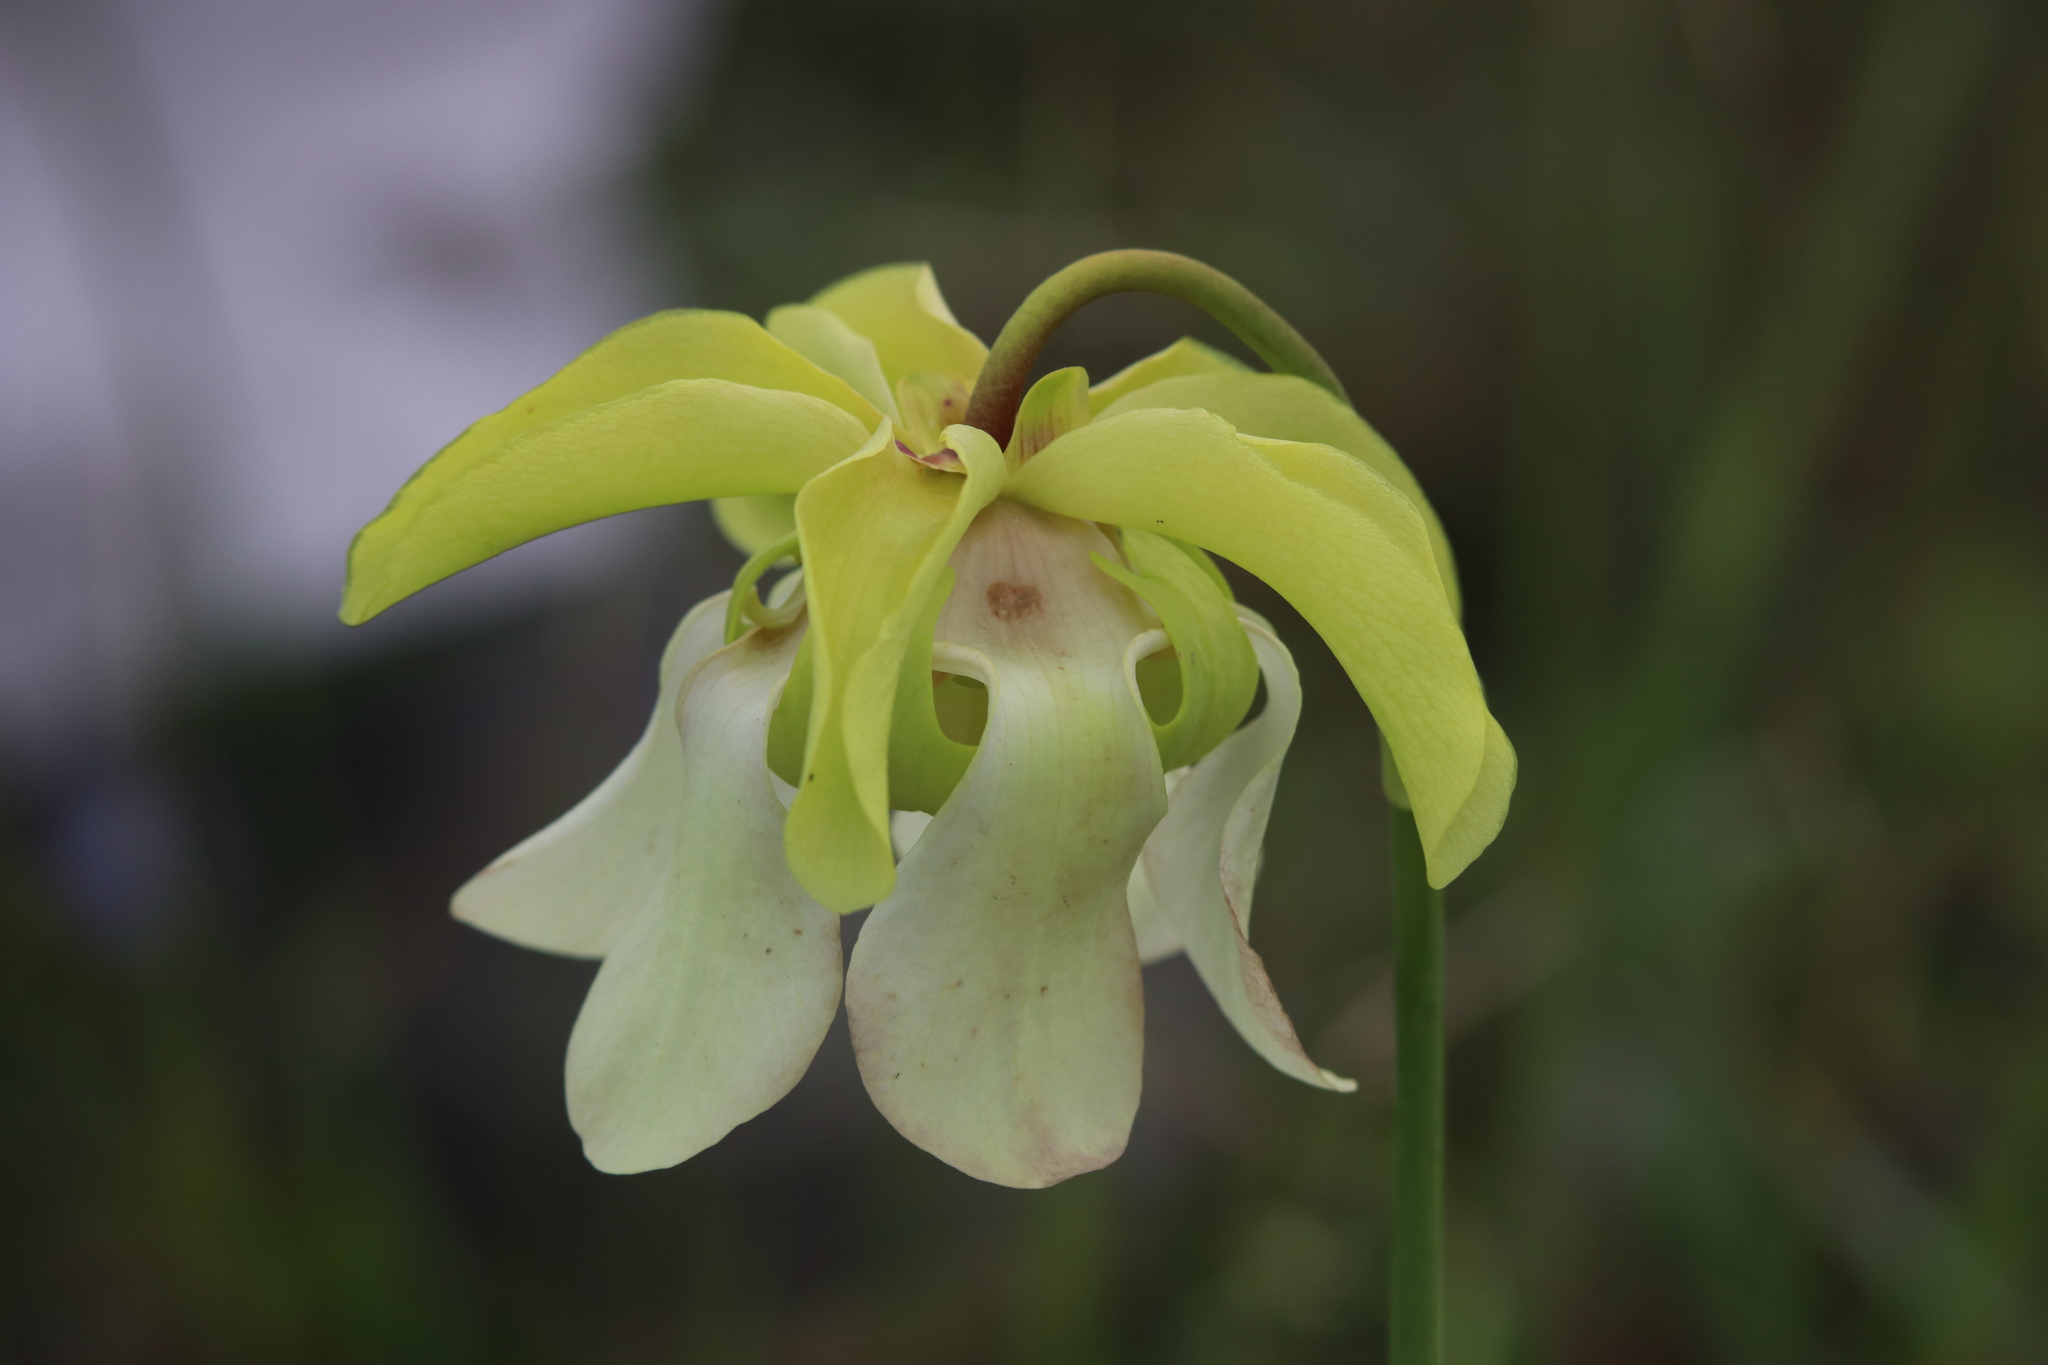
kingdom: Plantae
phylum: Tracheophyta
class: Magnoliopsida
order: Ericales
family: Sarraceniaceae
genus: Sarracenia
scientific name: Sarracenia alata
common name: Yellow trumpets
